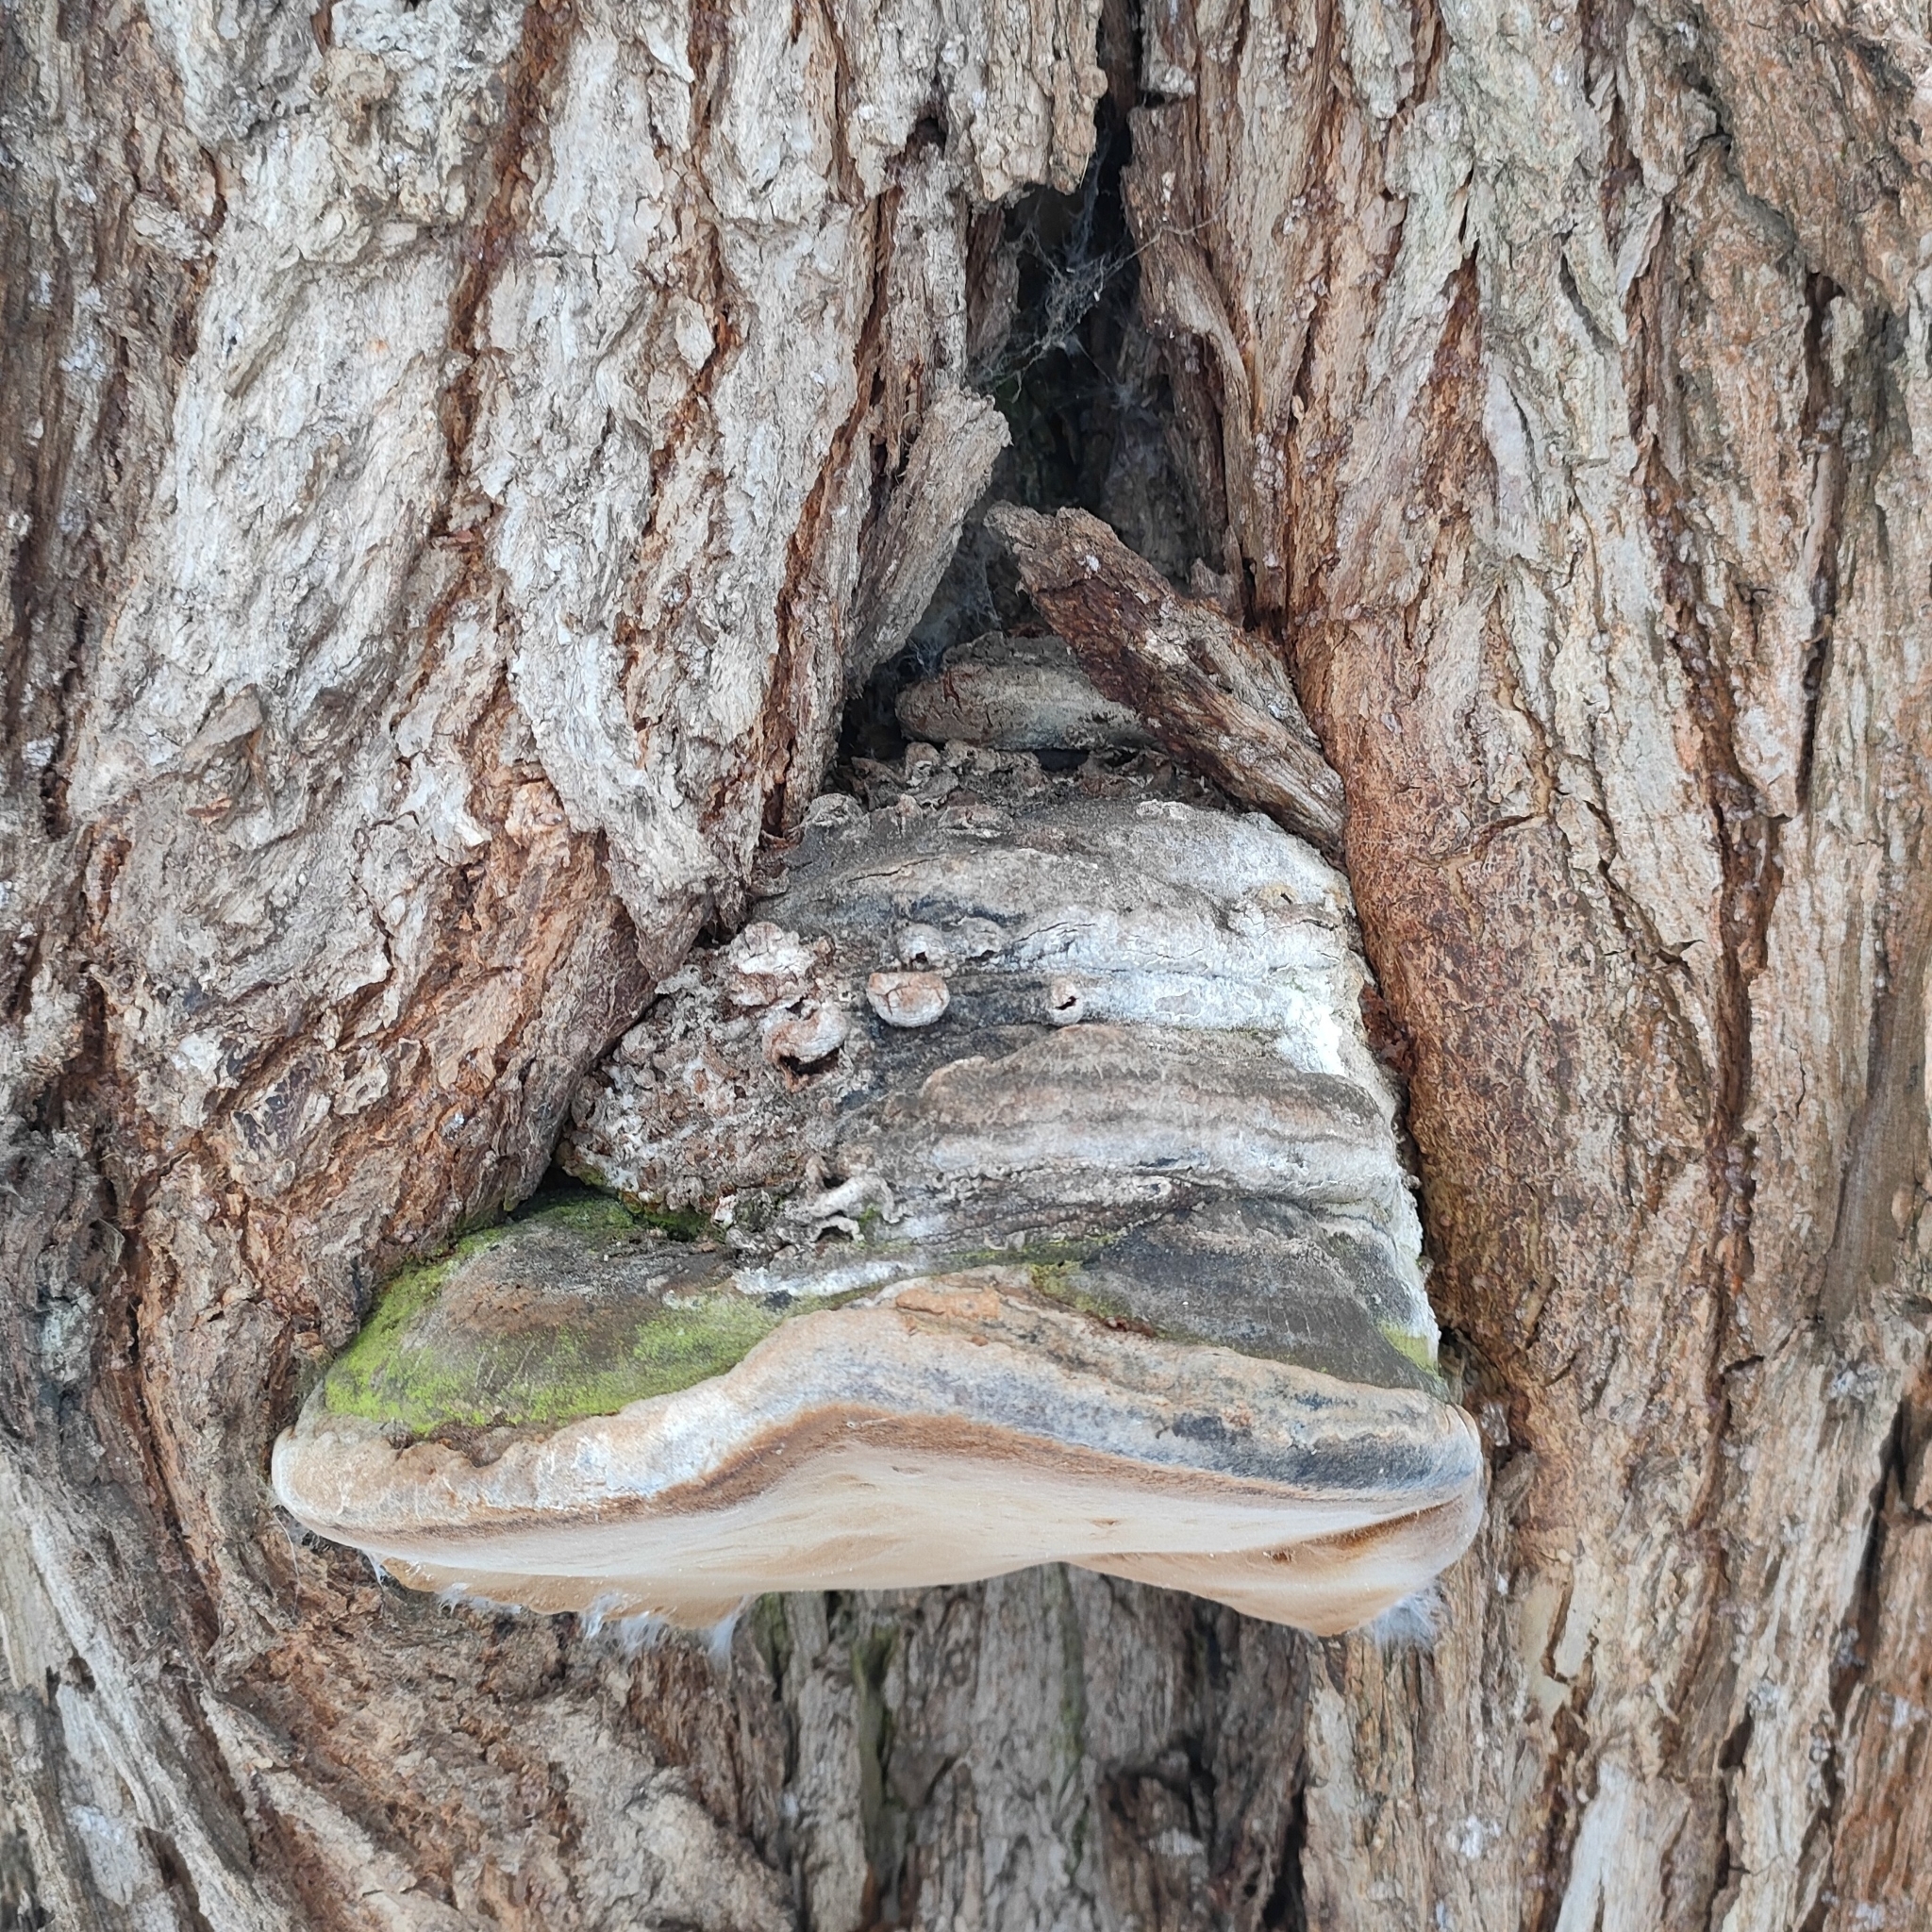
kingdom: Fungi
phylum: Basidiomycota
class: Agaricomycetes
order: Hymenochaetales
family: Hymenochaetaceae
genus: Phellinus
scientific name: Phellinus igniarius
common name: Willow bracket
